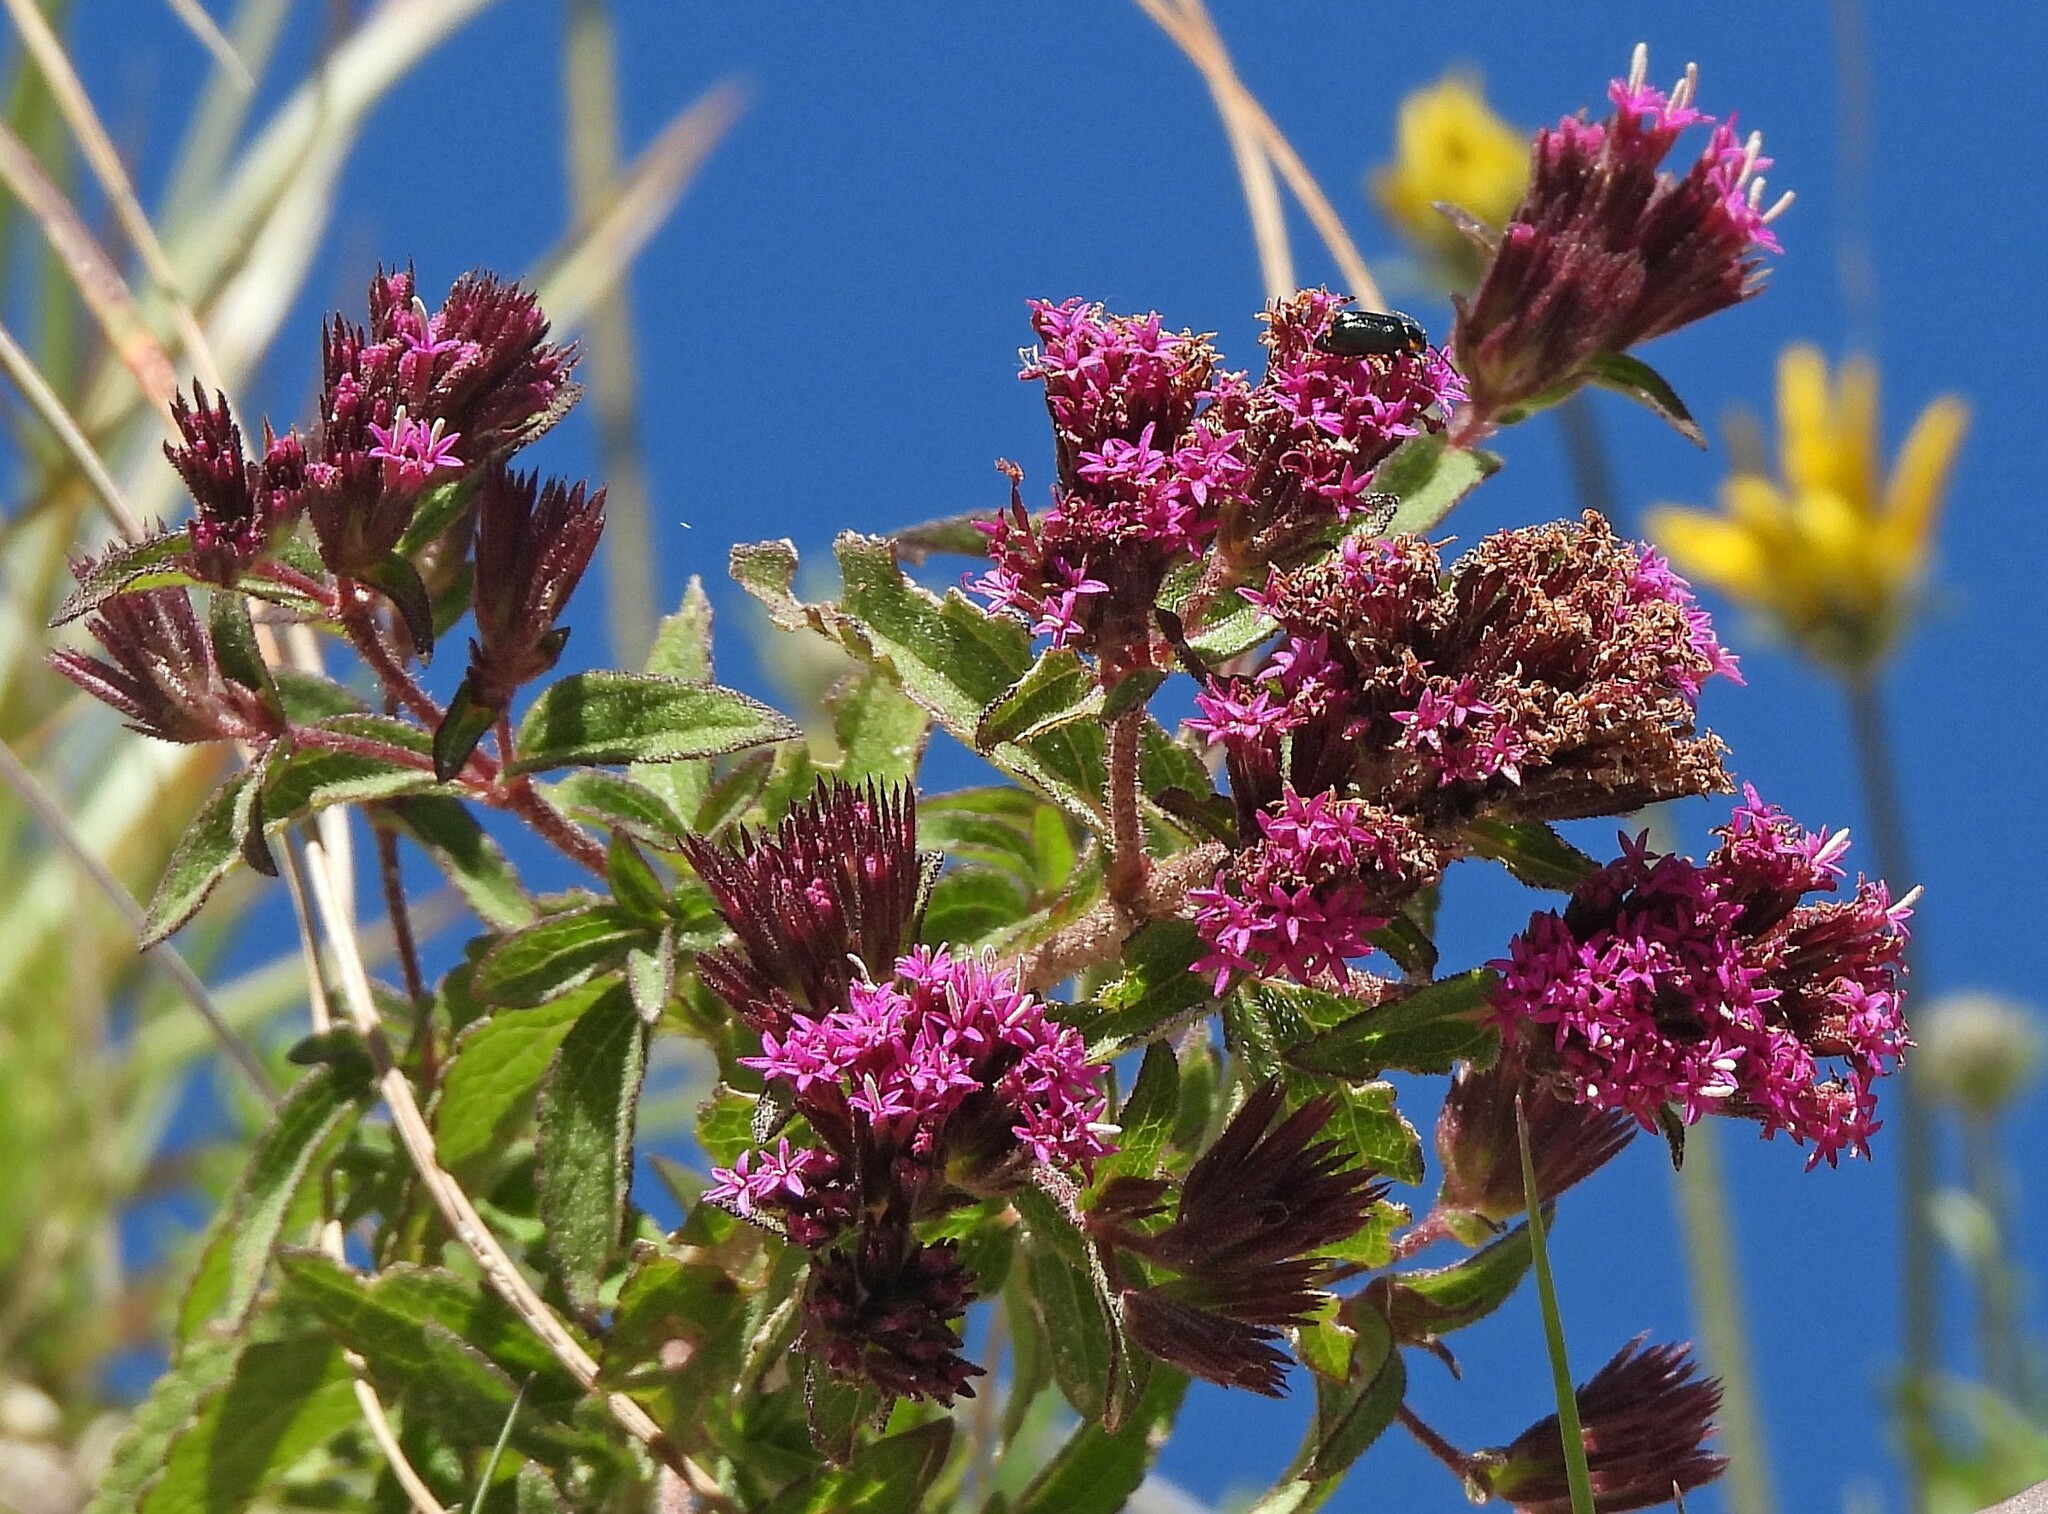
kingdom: Plantae
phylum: Tracheophyta
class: Magnoliopsida
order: Asterales
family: Asteraceae
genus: Stevia
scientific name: Stevia sanguinea
